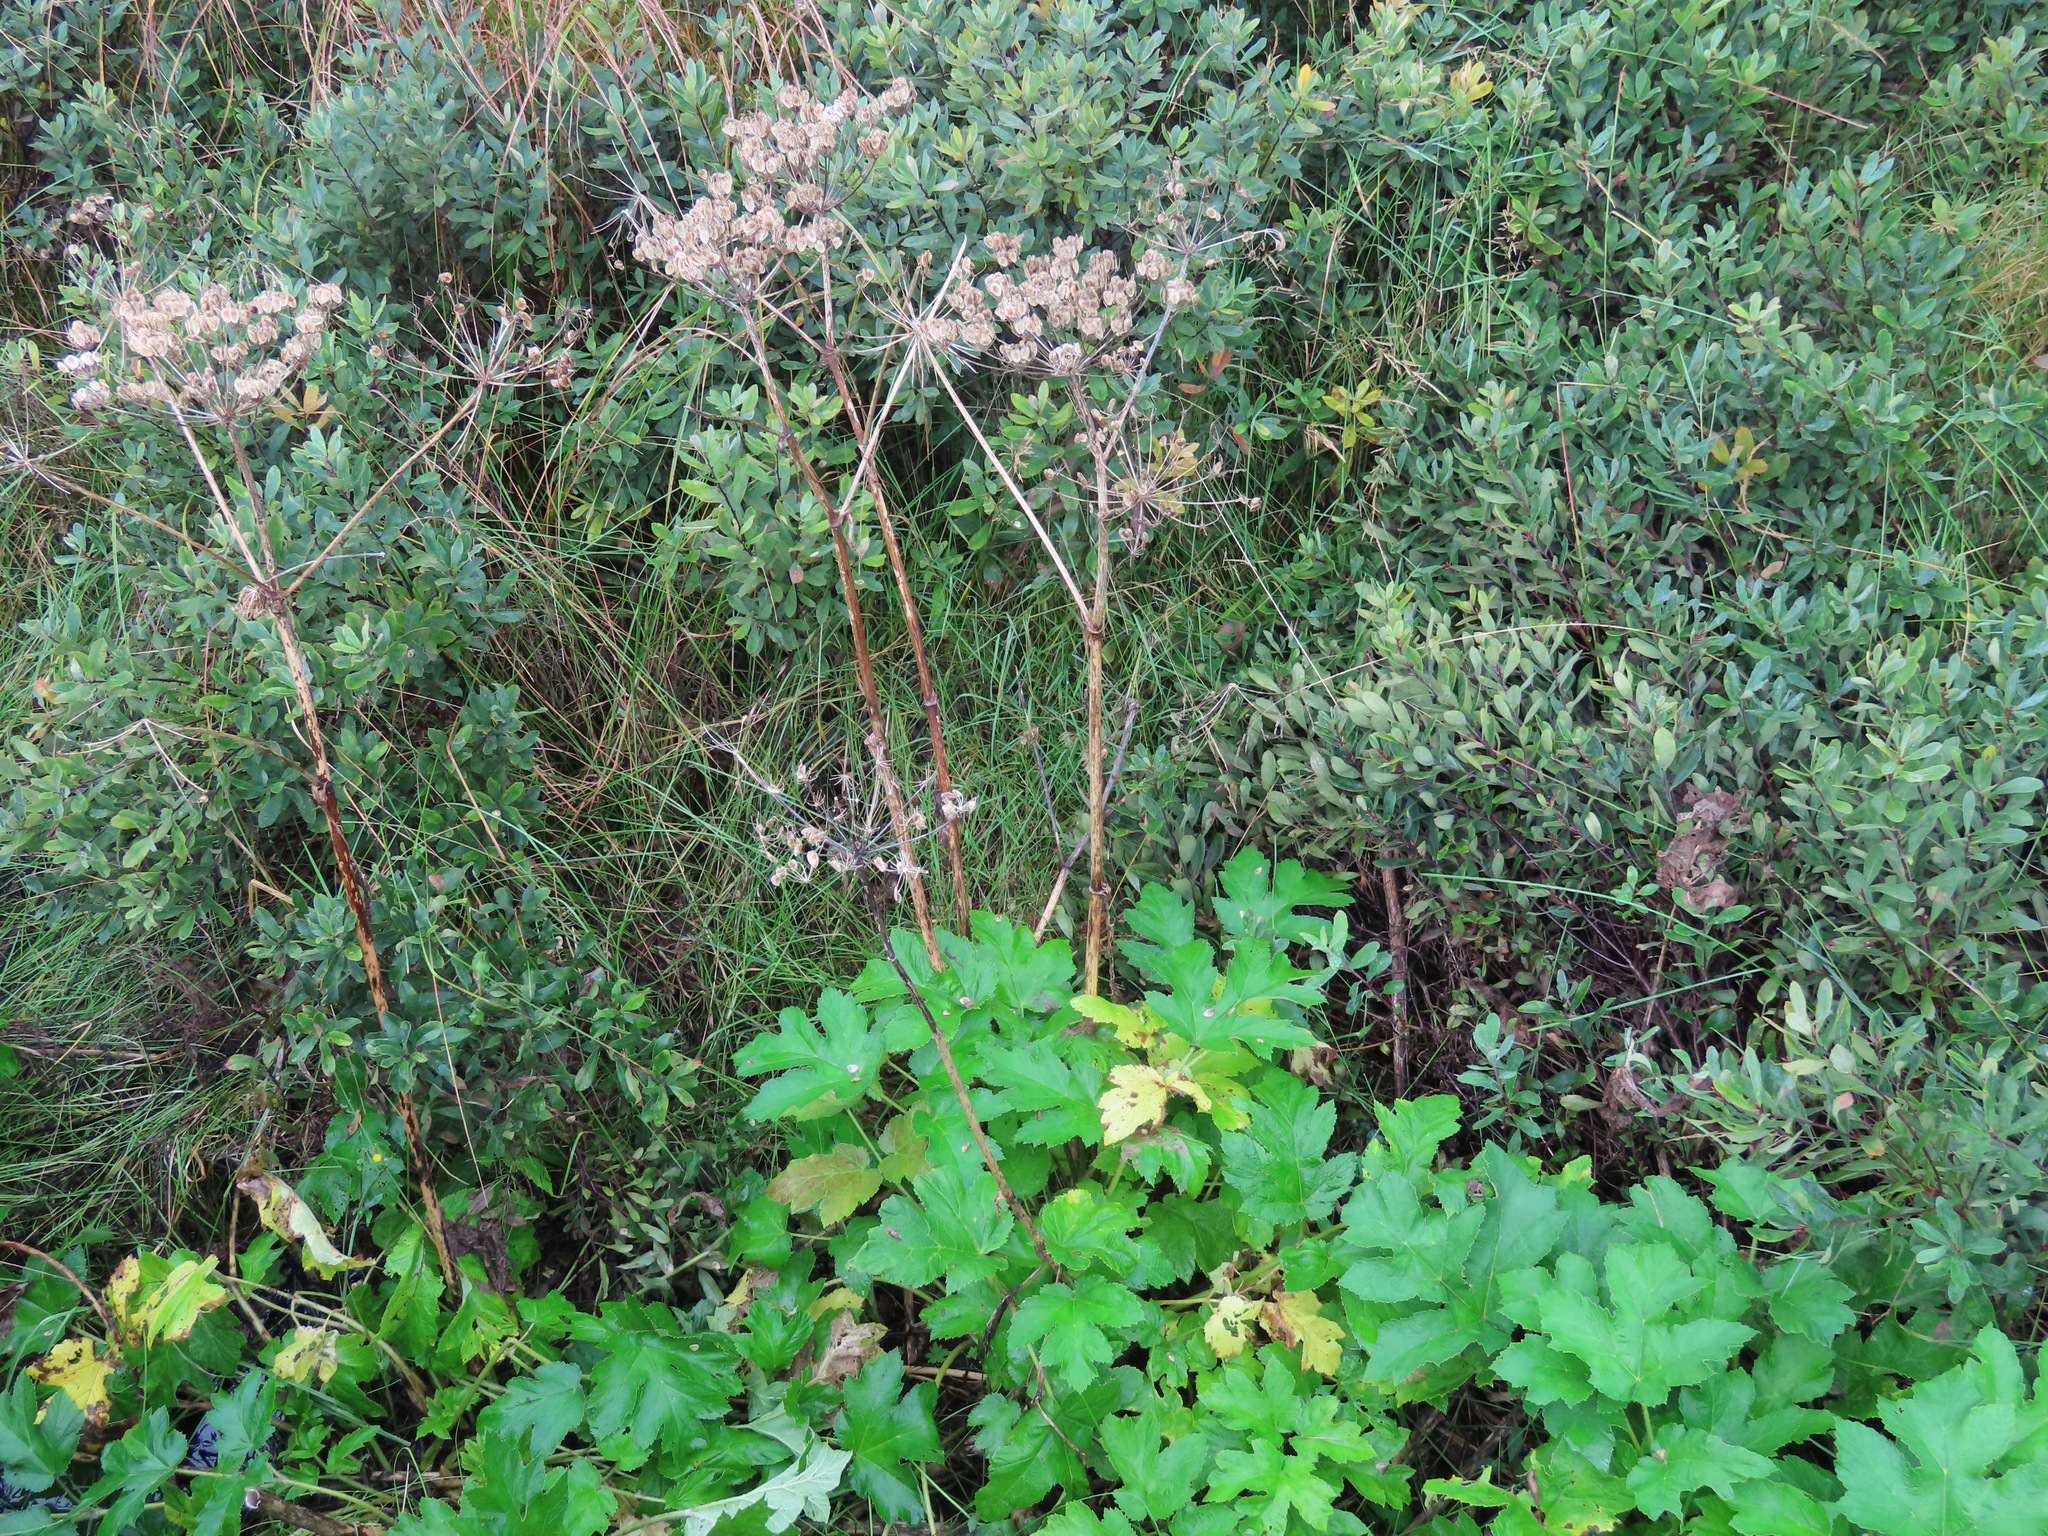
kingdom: Plantae
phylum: Tracheophyta
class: Magnoliopsida
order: Apiales
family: Apiaceae
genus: Heracleum
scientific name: Heracleum maximum
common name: American cow parsnip
